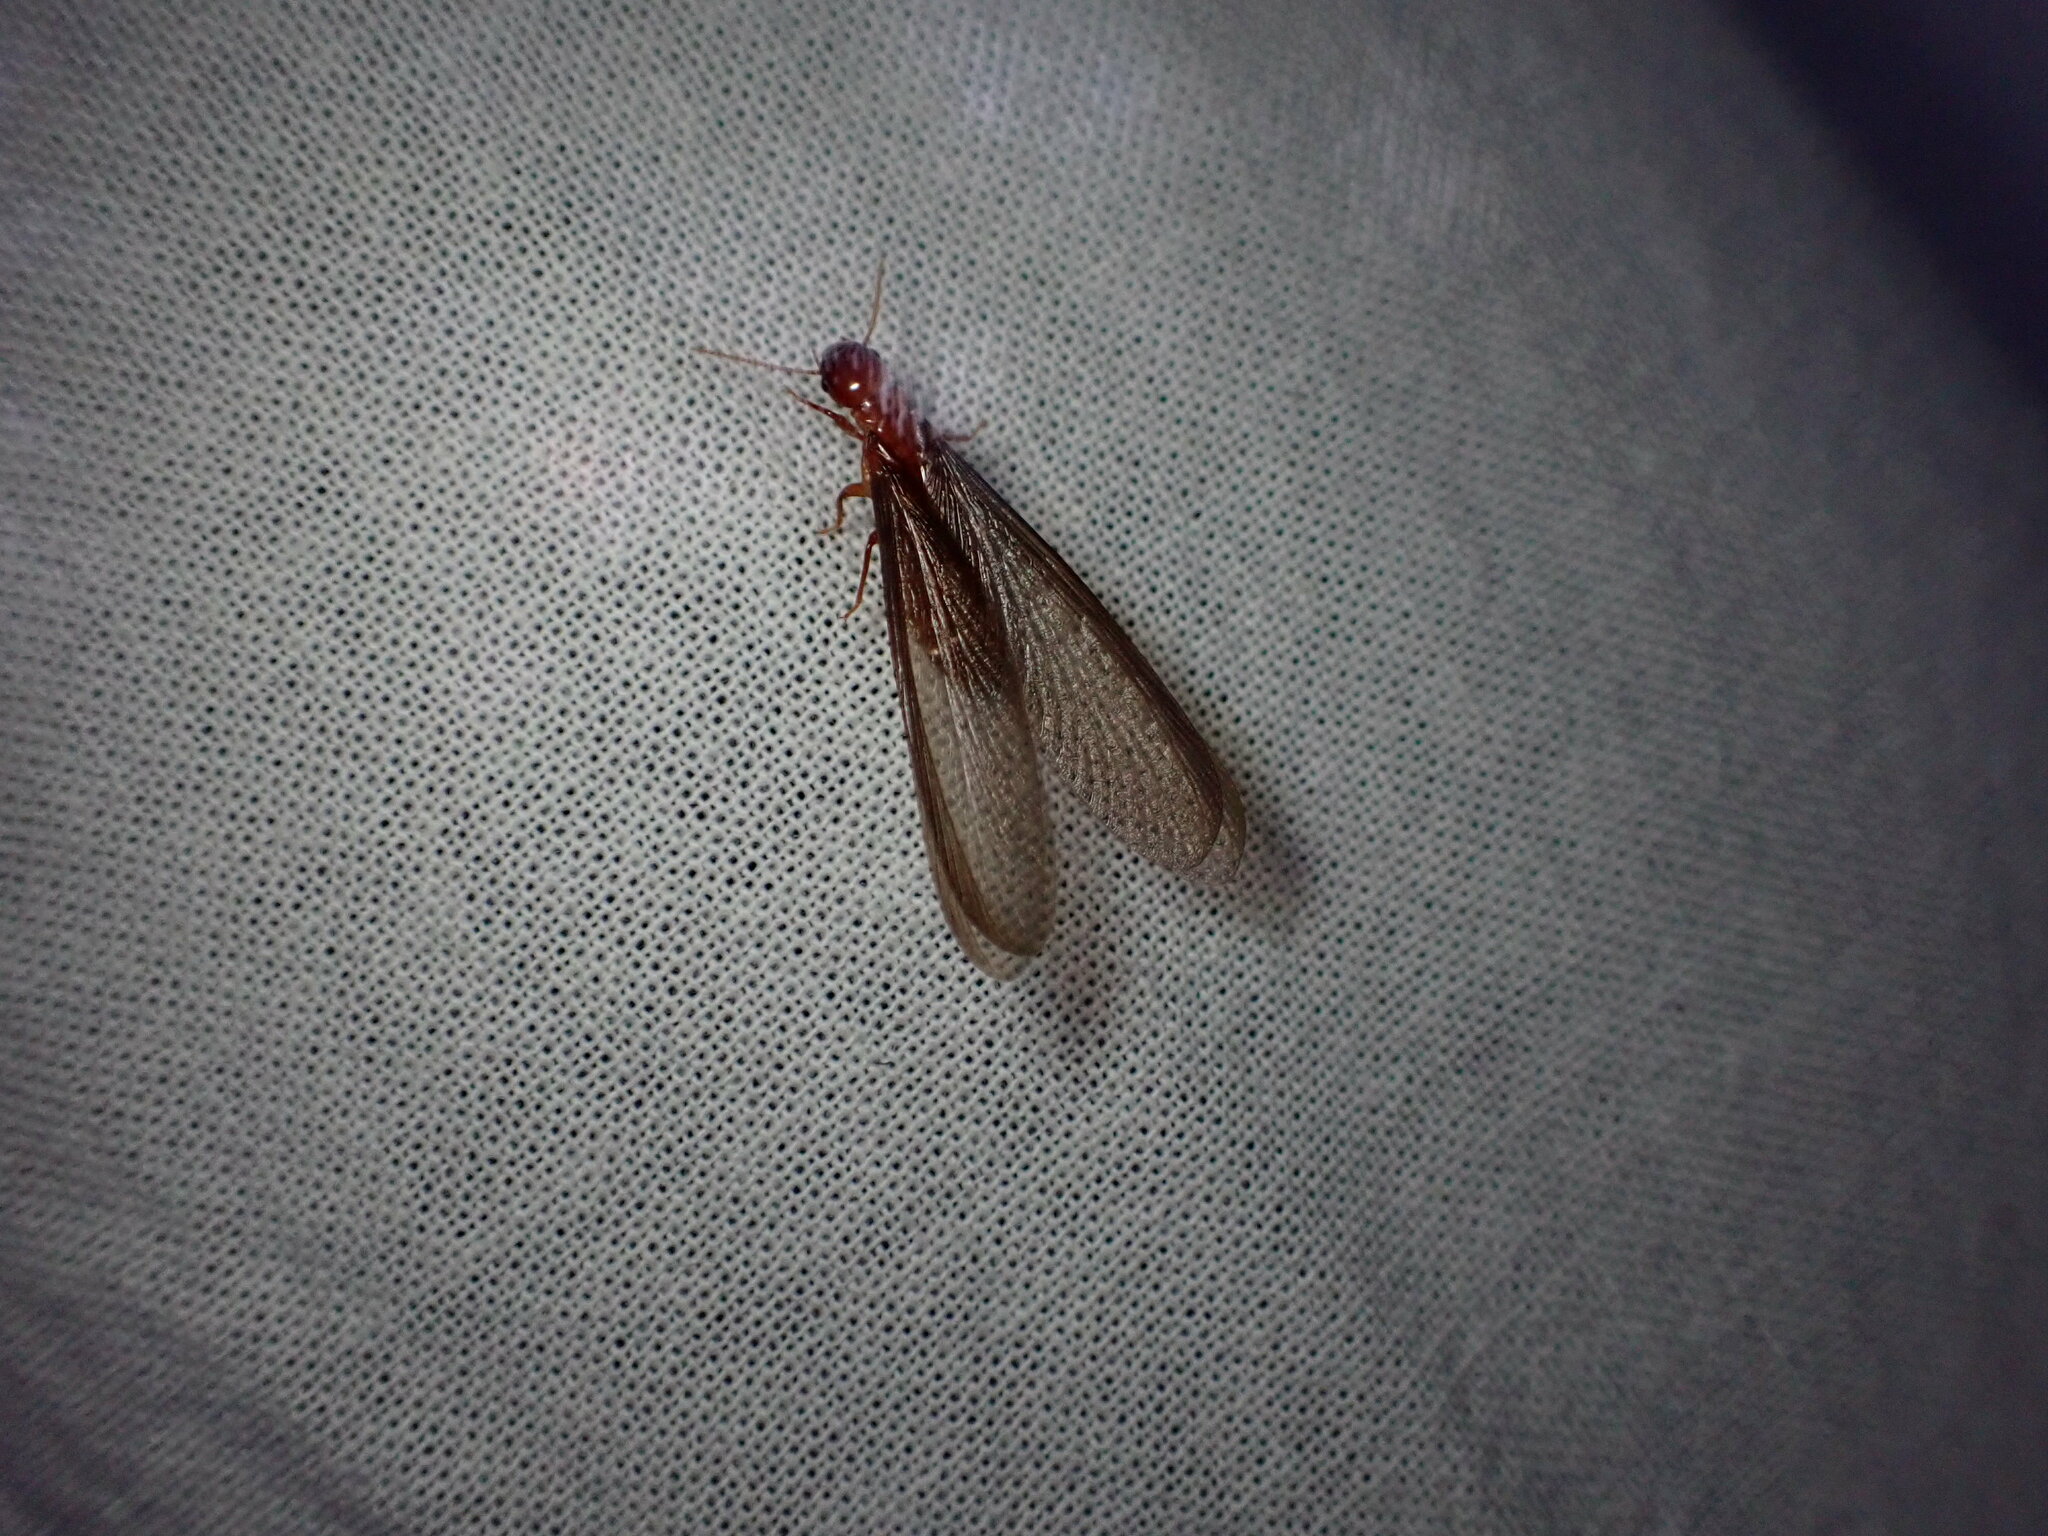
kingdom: Animalia
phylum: Arthropoda
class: Insecta
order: Blattodea
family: Archotermopsidae
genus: Zootermopsis
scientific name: Zootermopsis nevadensis
